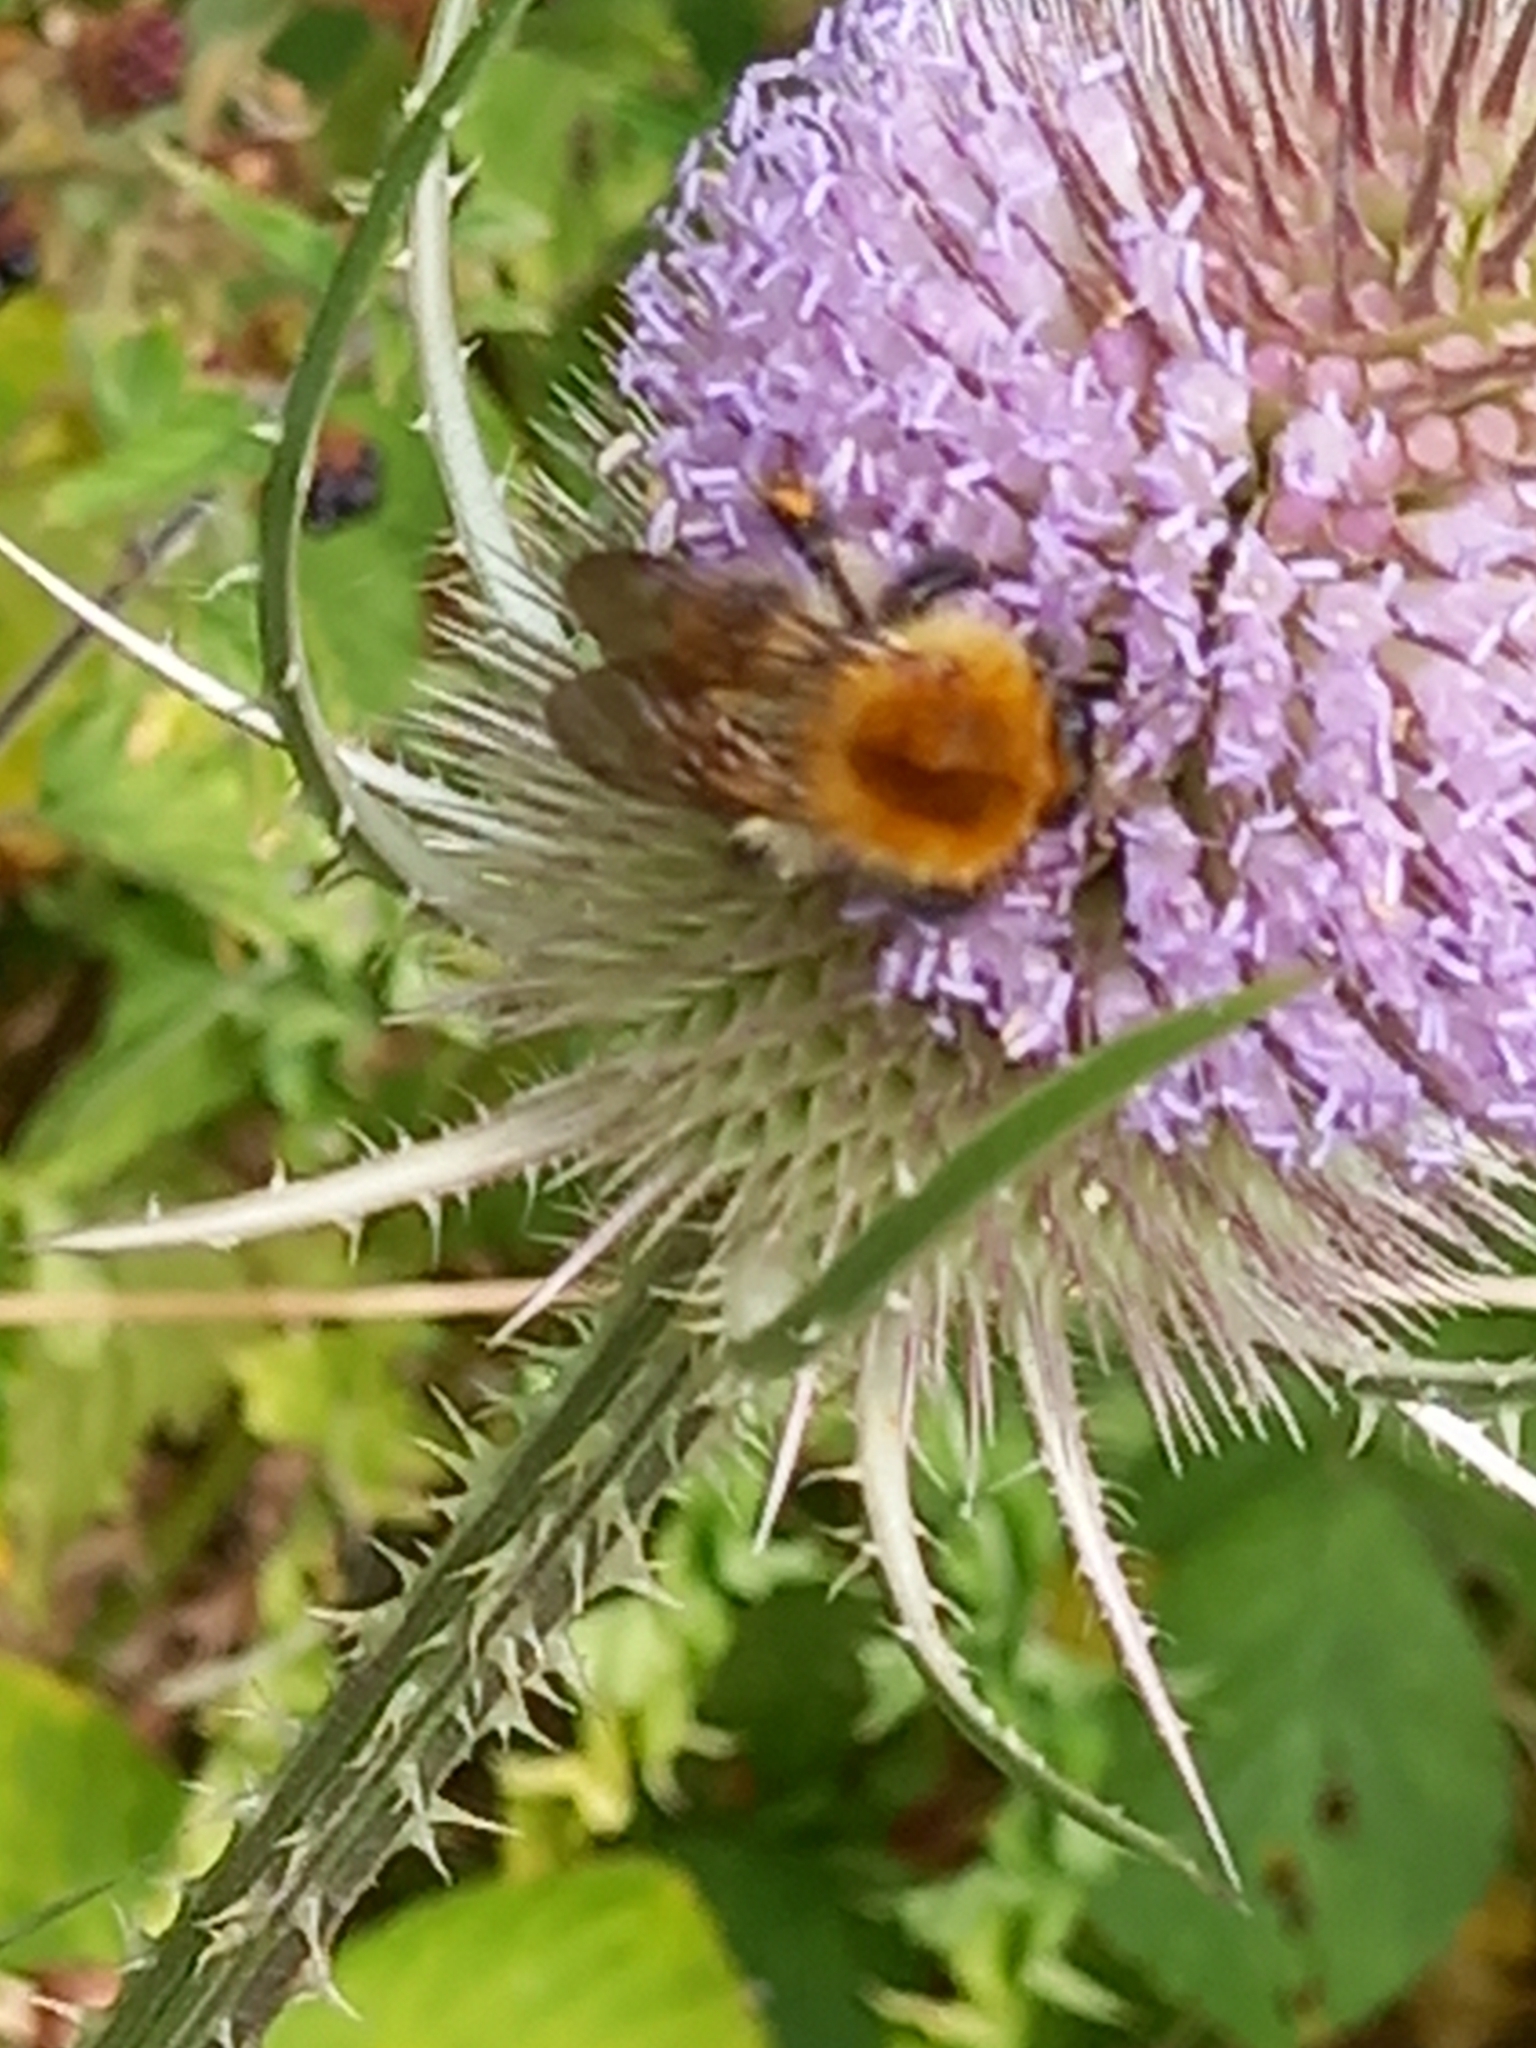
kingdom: Animalia
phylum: Arthropoda
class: Insecta
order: Hymenoptera
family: Apidae
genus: Bombus
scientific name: Bombus pascuorum
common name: Common carder bee
